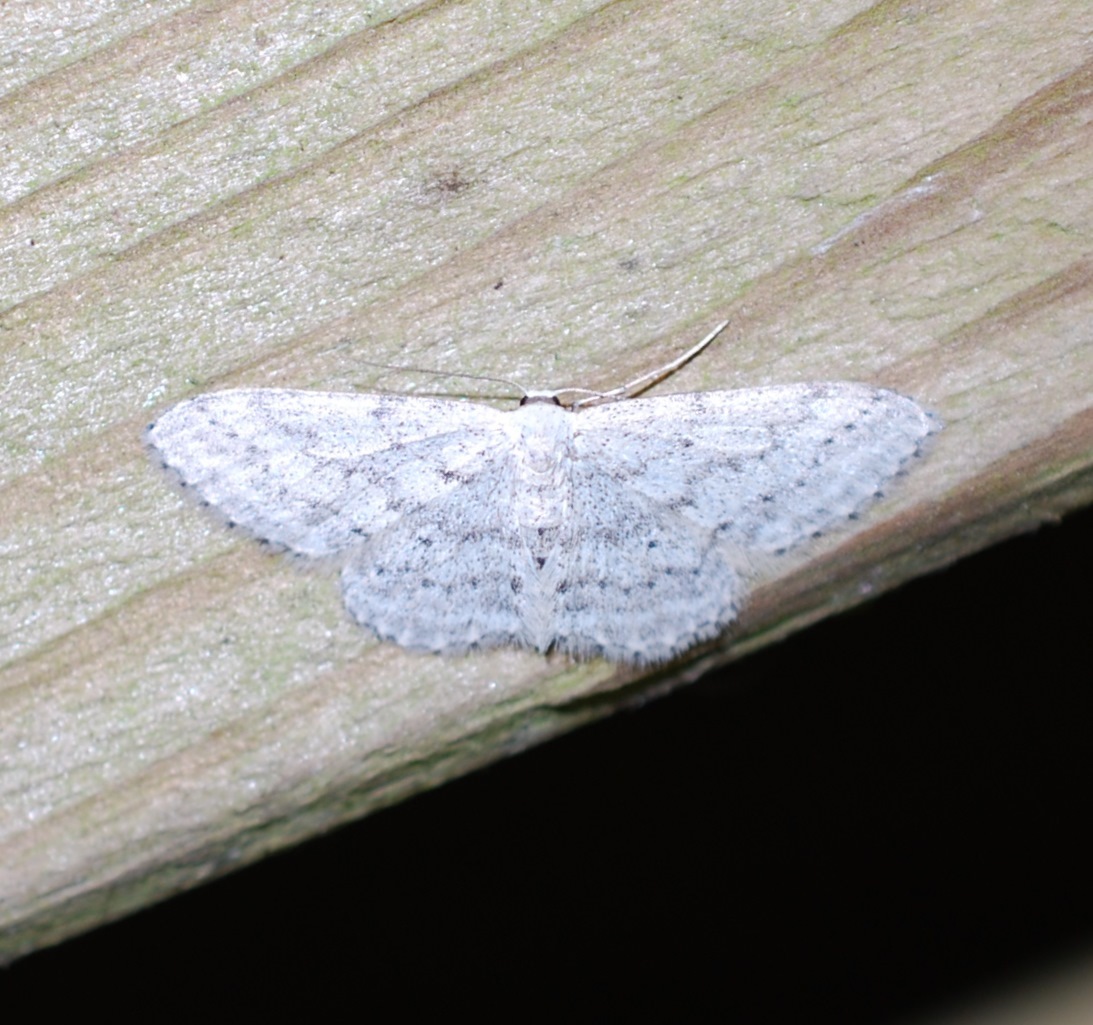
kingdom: Animalia
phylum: Arthropoda
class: Insecta
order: Lepidoptera
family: Geometridae
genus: Idaea
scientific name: Idaea seriata
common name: Small dusty wave
